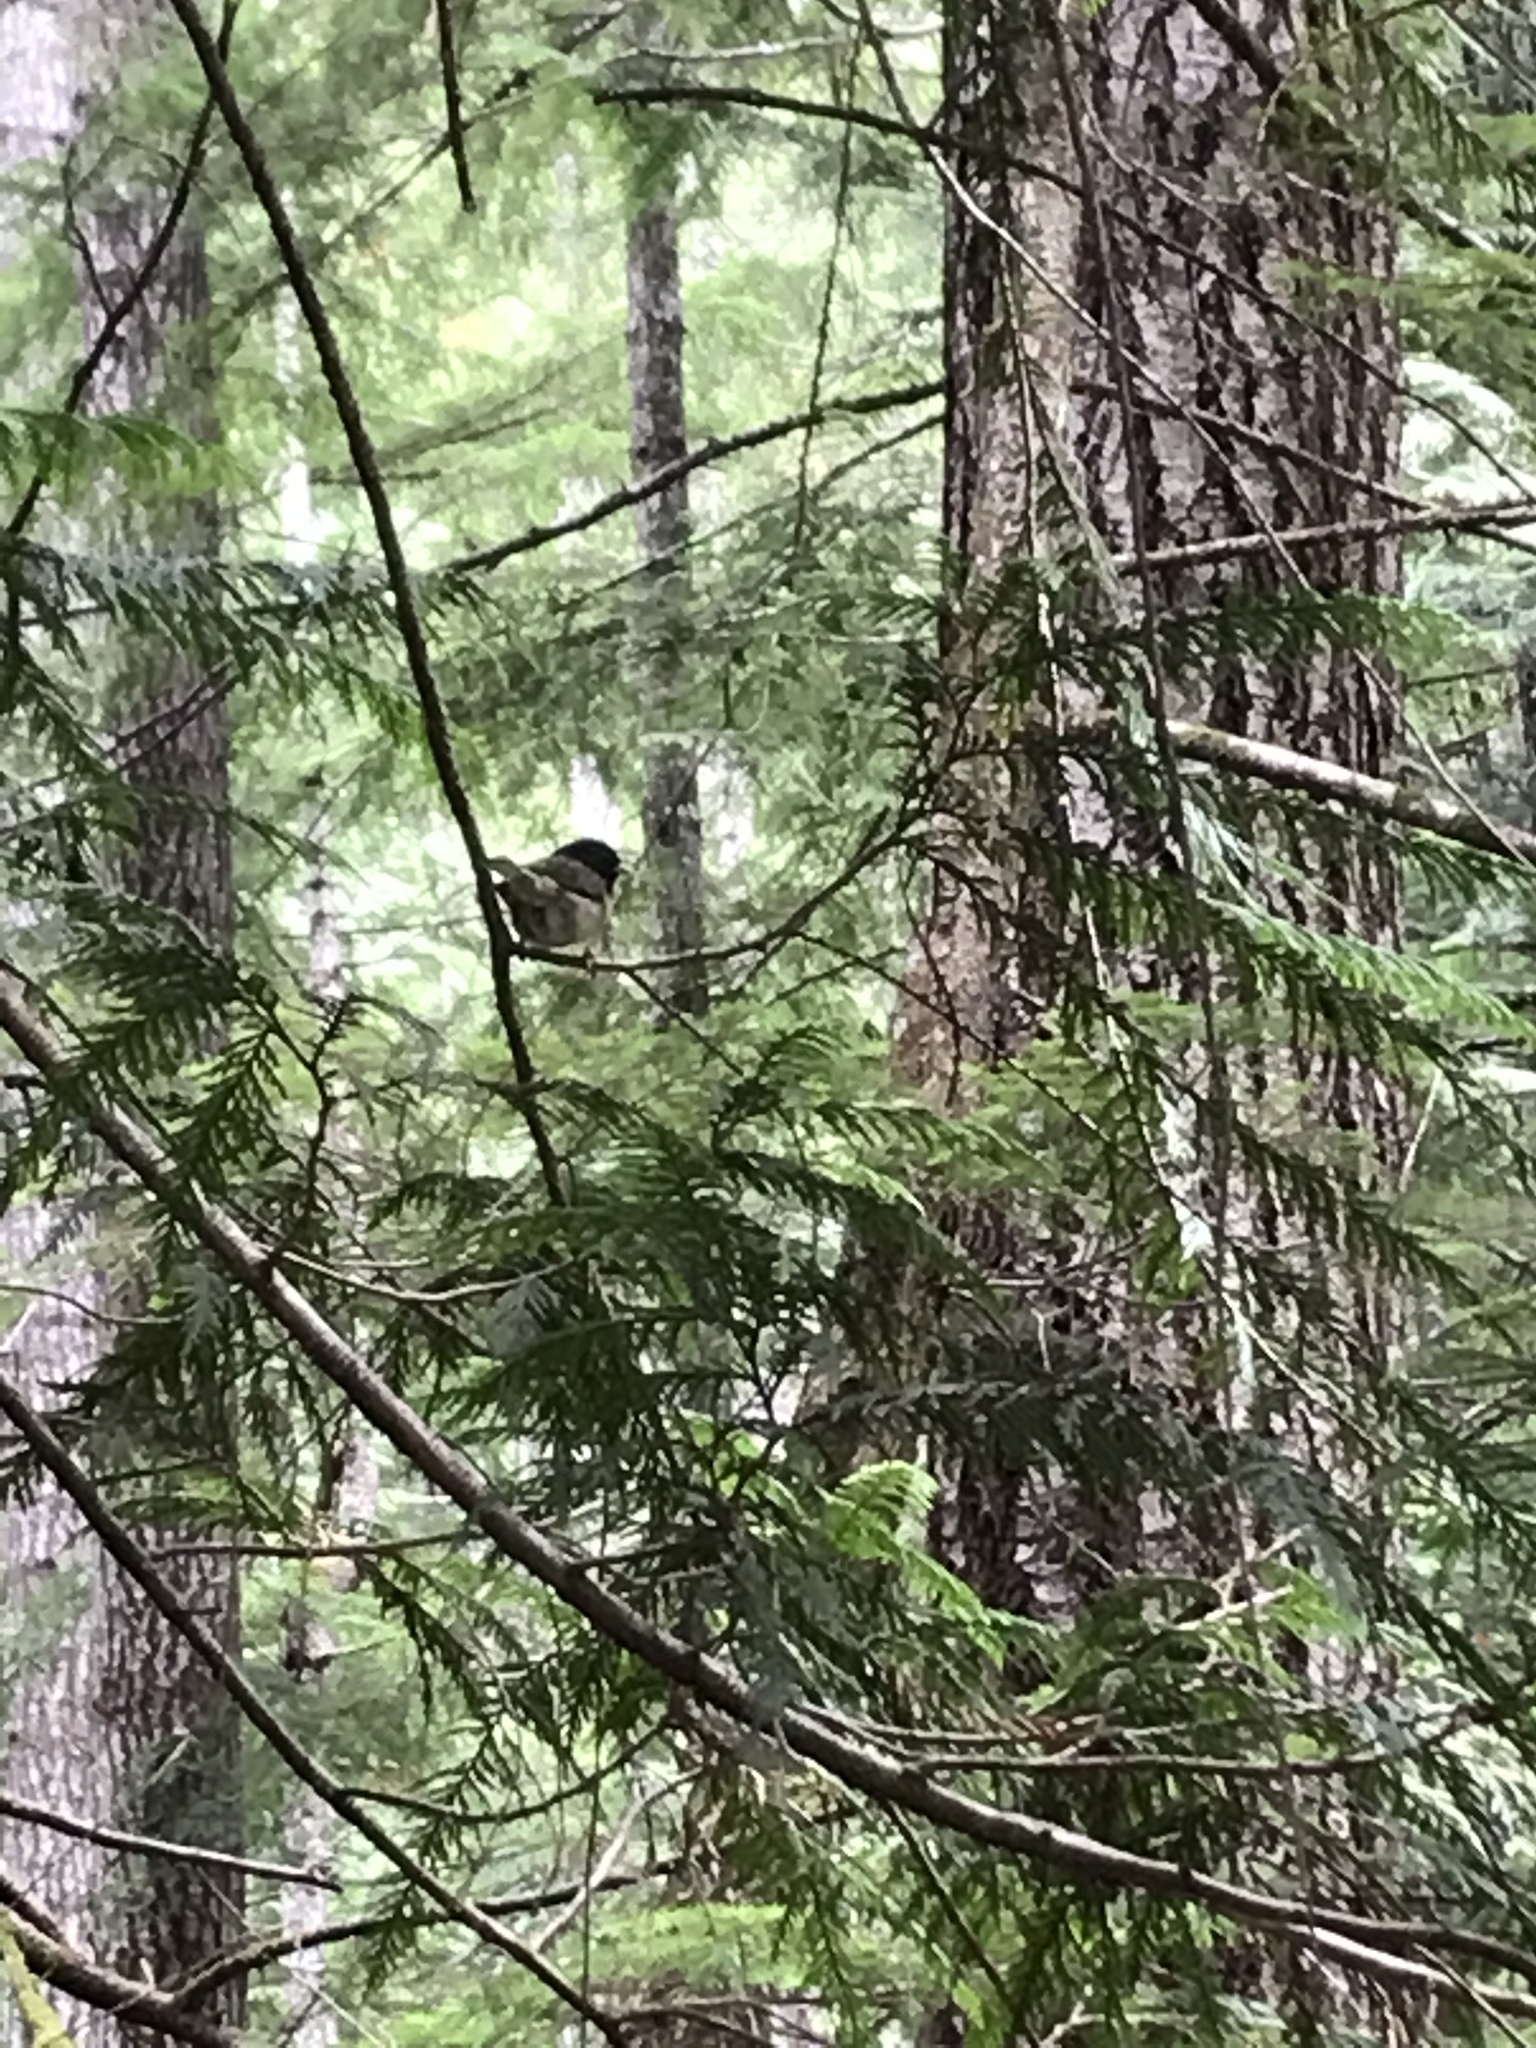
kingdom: Animalia
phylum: Chordata
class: Aves
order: Passeriformes
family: Passerellidae
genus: Junco
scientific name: Junco hyemalis
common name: Dark-eyed junco
